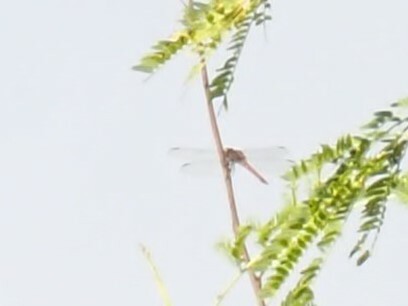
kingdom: Animalia
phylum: Arthropoda
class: Insecta
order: Odonata
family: Libellulidae
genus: Orthemis
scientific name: Orthemis ferruginea
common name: Roseate skimmer
